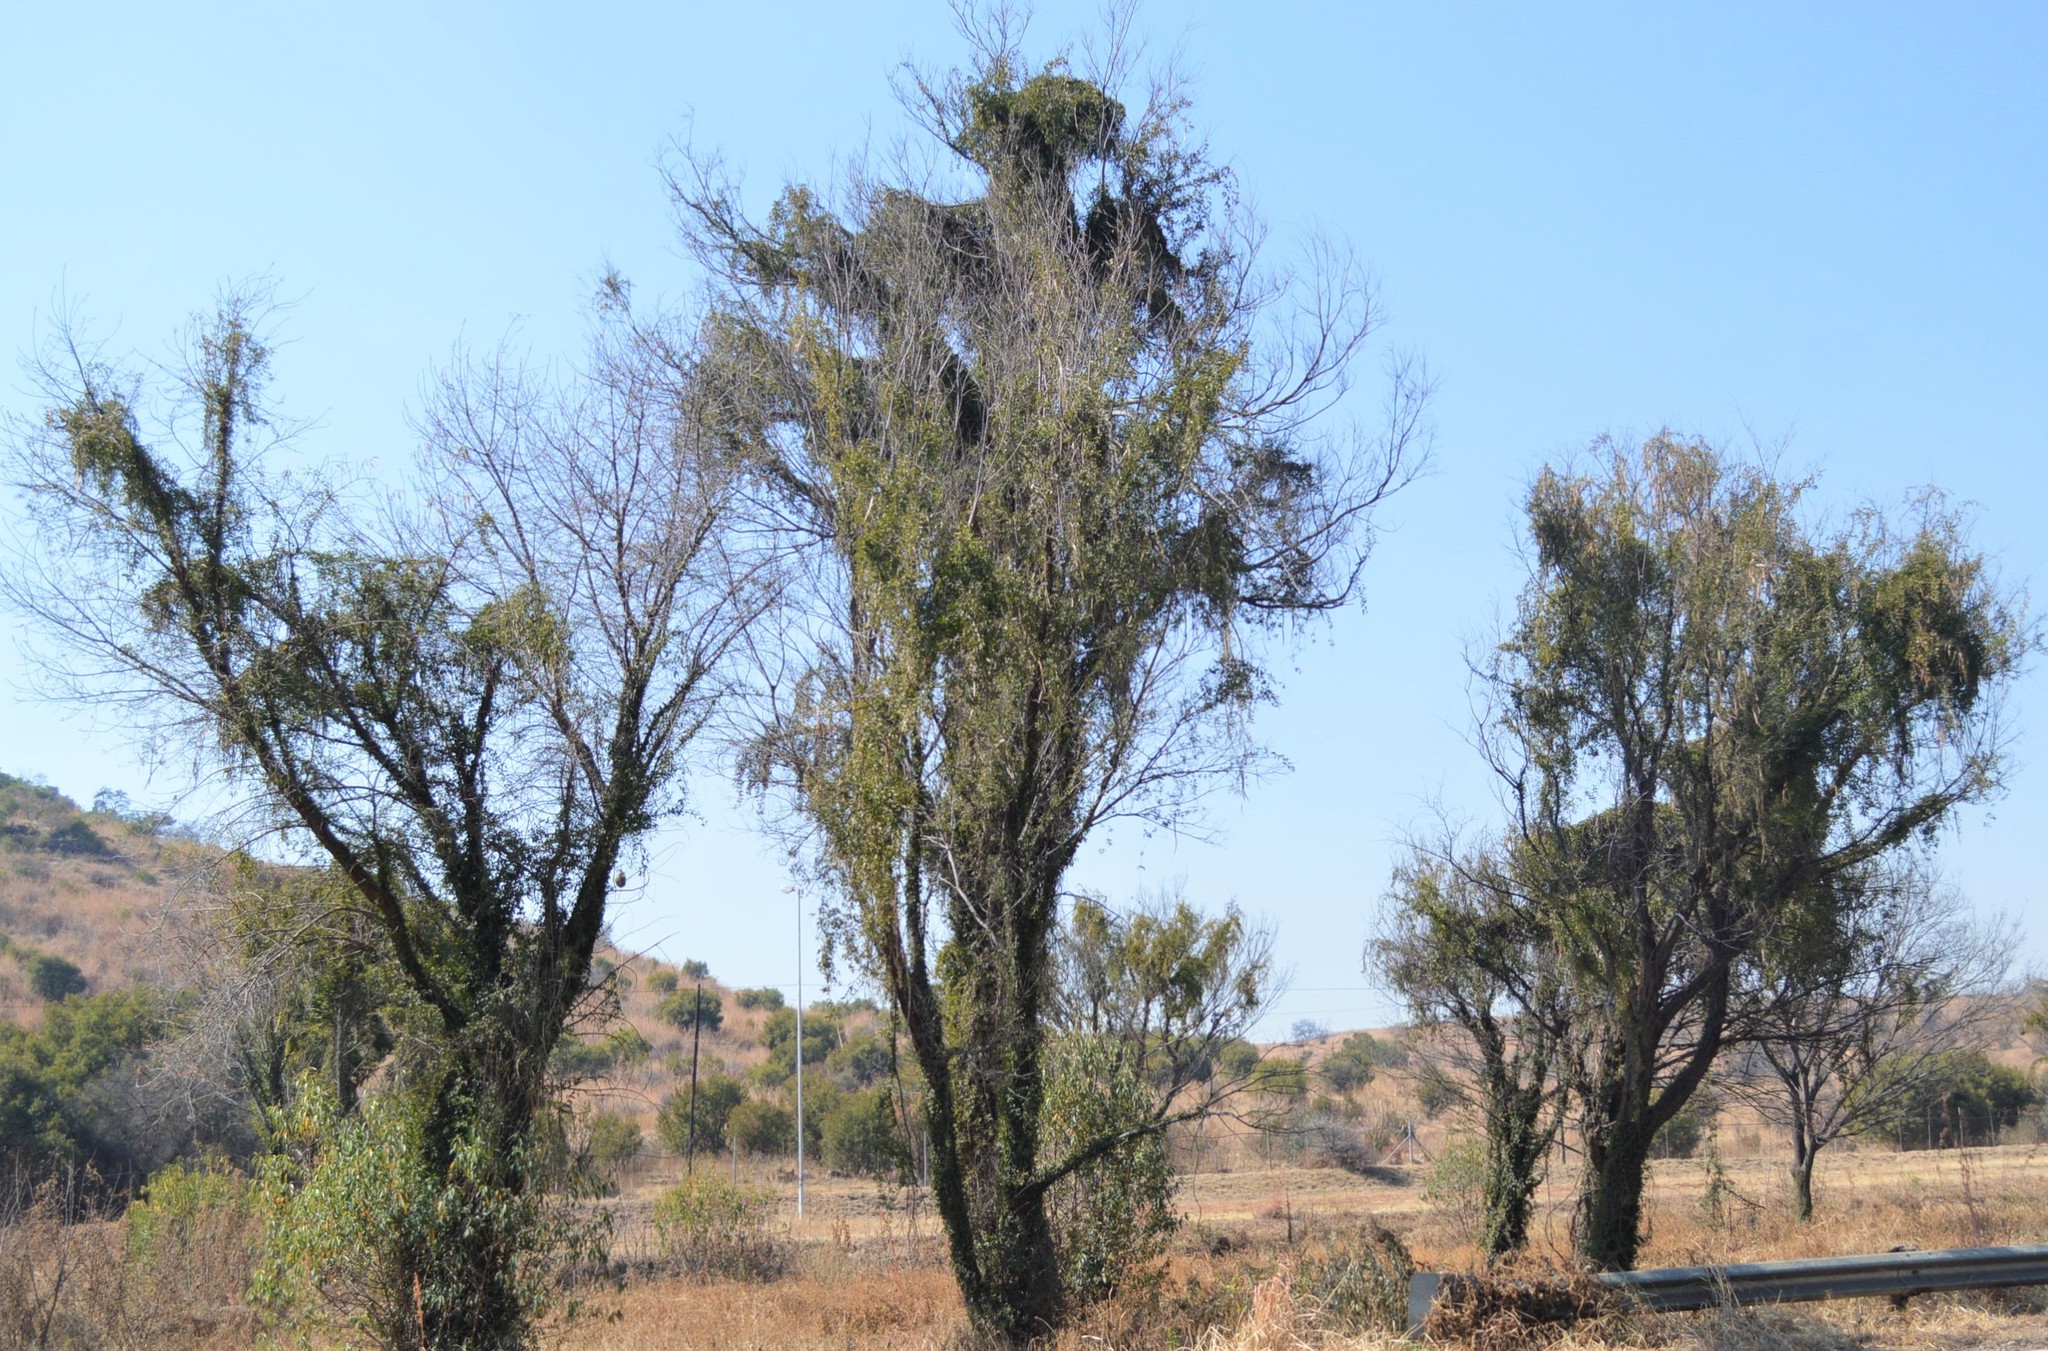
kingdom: Plantae
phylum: Tracheophyta
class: Magnoliopsida
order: Lamiales
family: Bignoniaceae
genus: Dolichandra
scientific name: Dolichandra unguis-cati
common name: Catclaw vine
